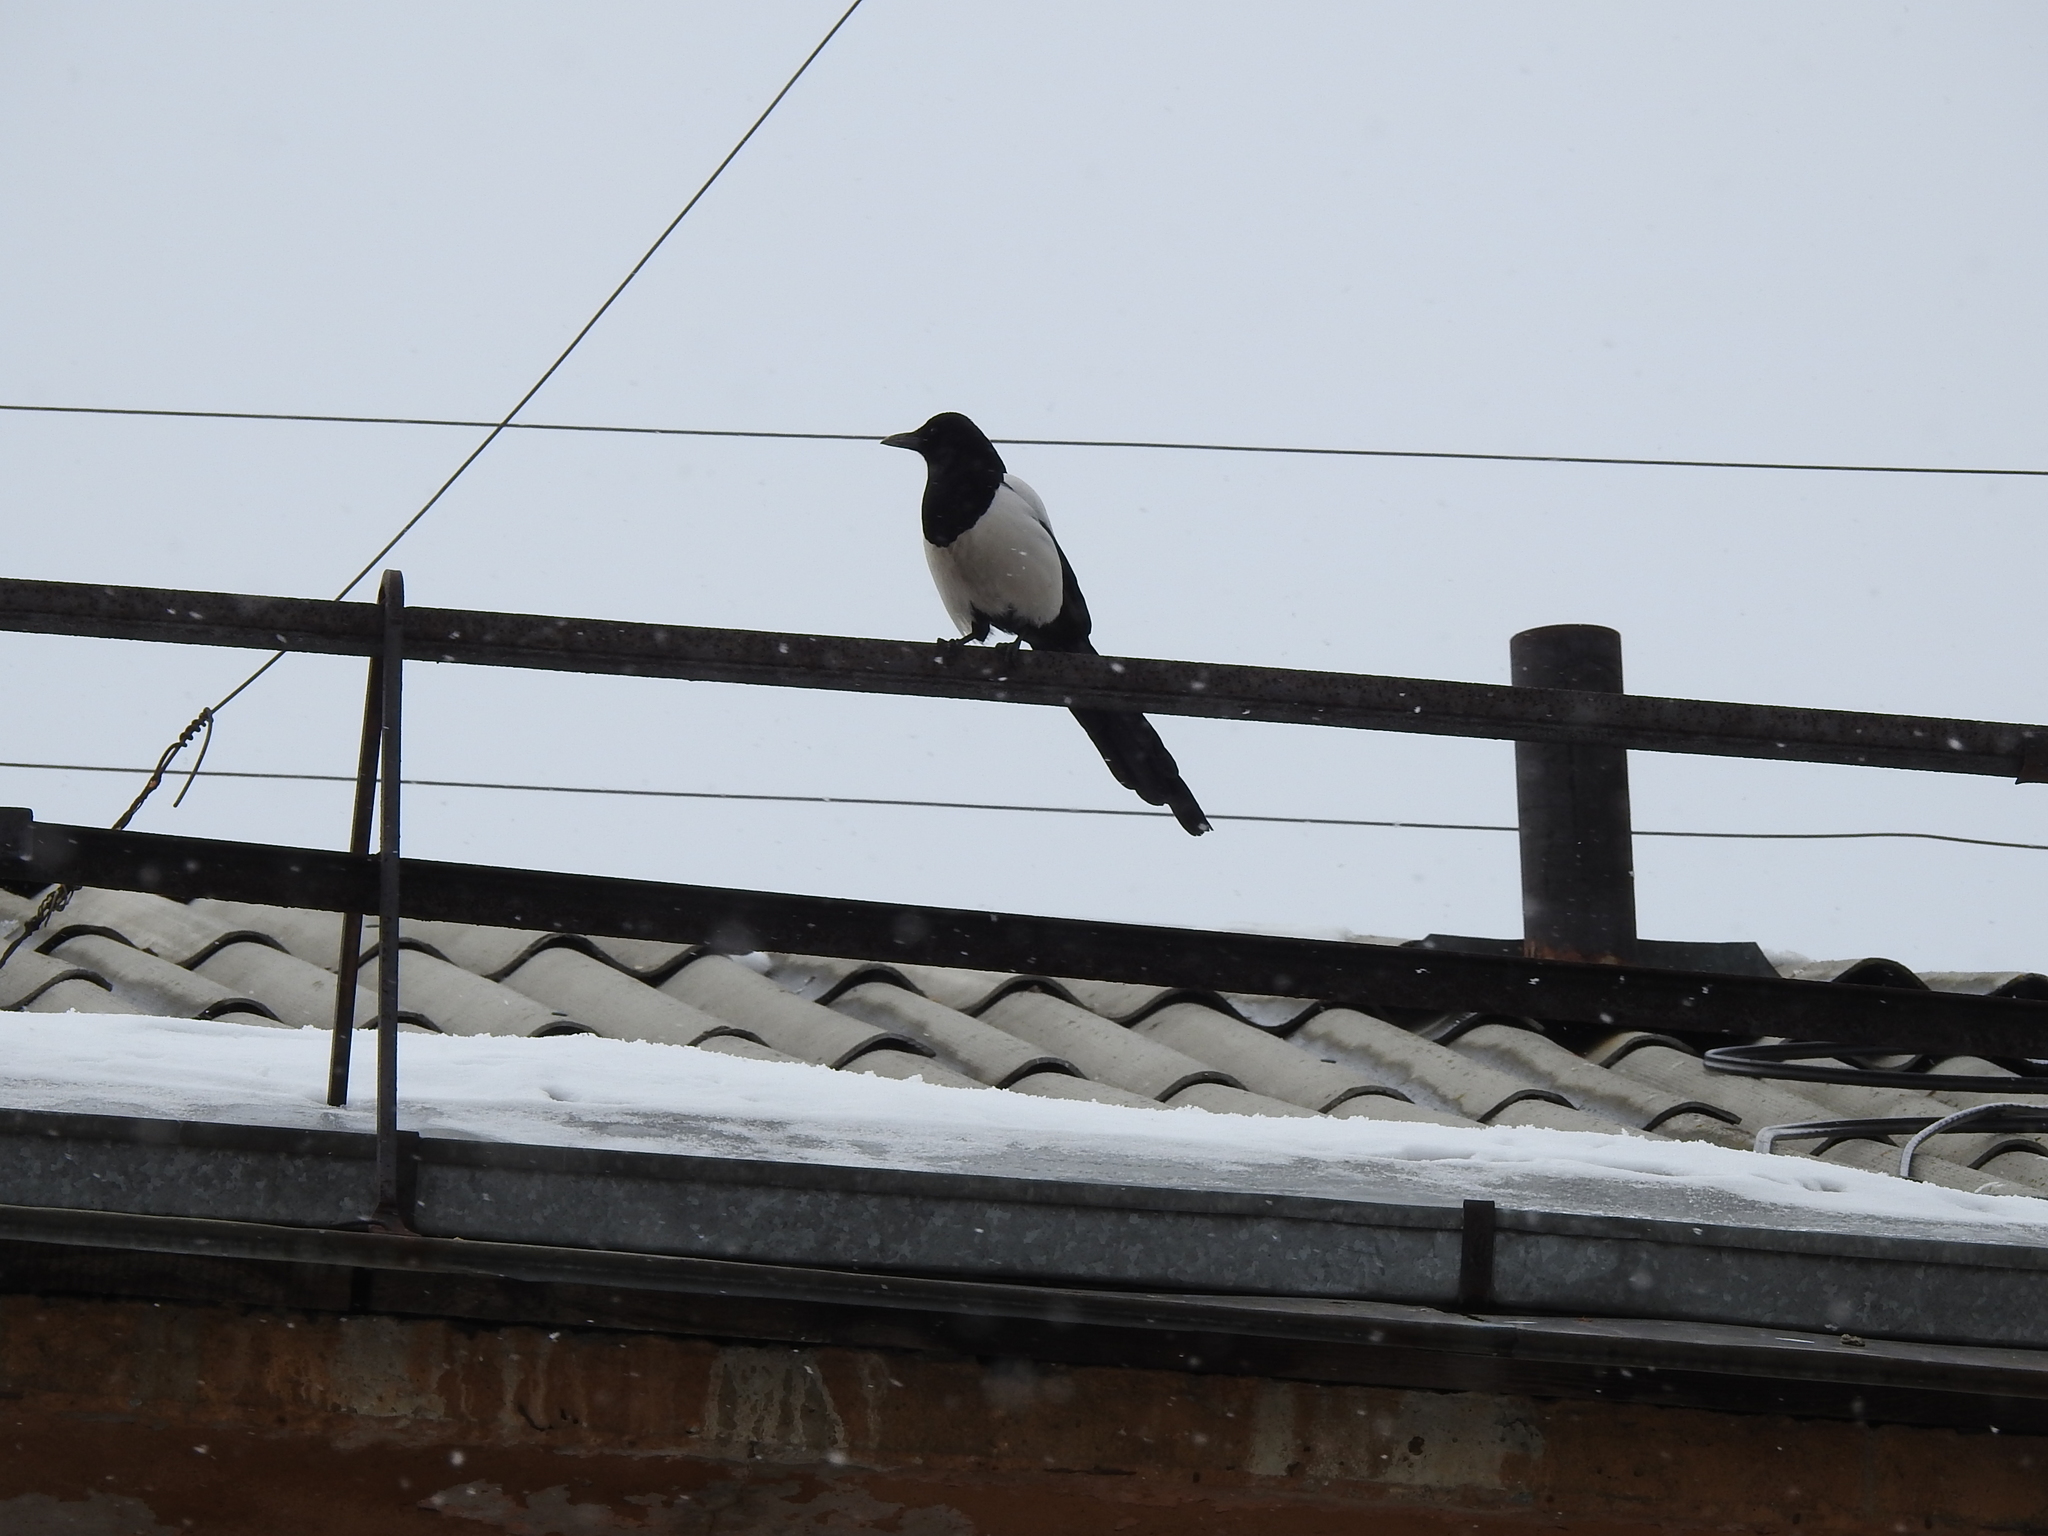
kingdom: Animalia
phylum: Chordata
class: Aves
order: Passeriformes
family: Corvidae
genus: Pica
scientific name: Pica pica
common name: Eurasian magpie
